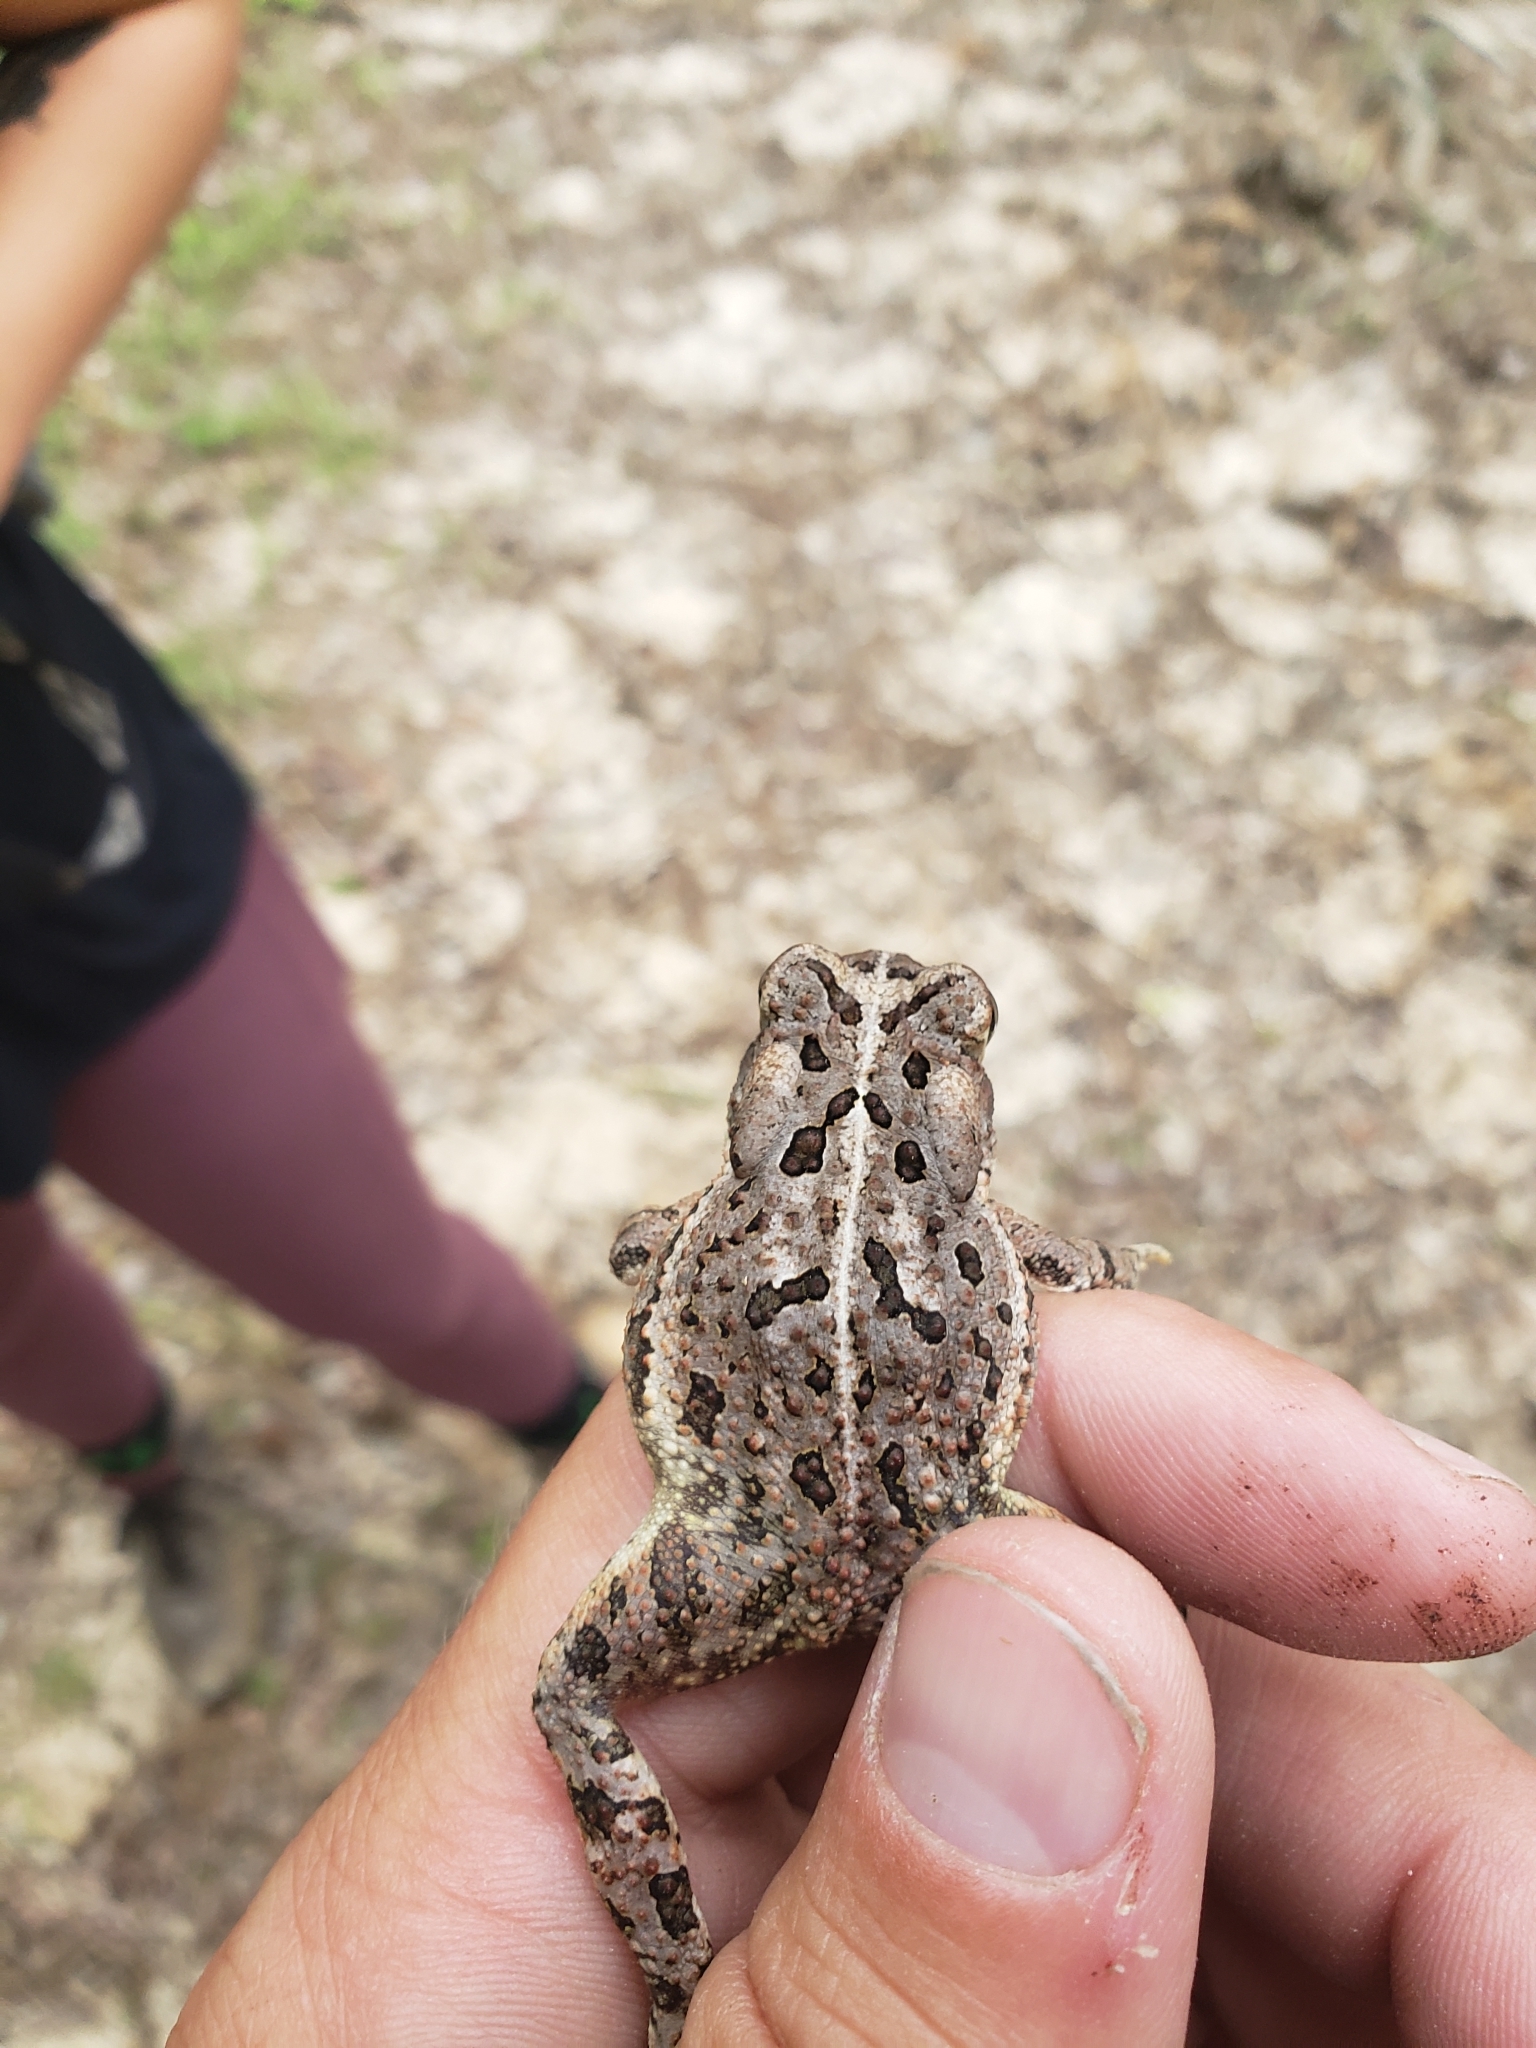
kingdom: Animalia
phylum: Chordata
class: Amphibia
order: Anura
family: Bufonidae
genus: Anaxyrus
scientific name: Anaxyrus fowleri
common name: Fowler's toad
